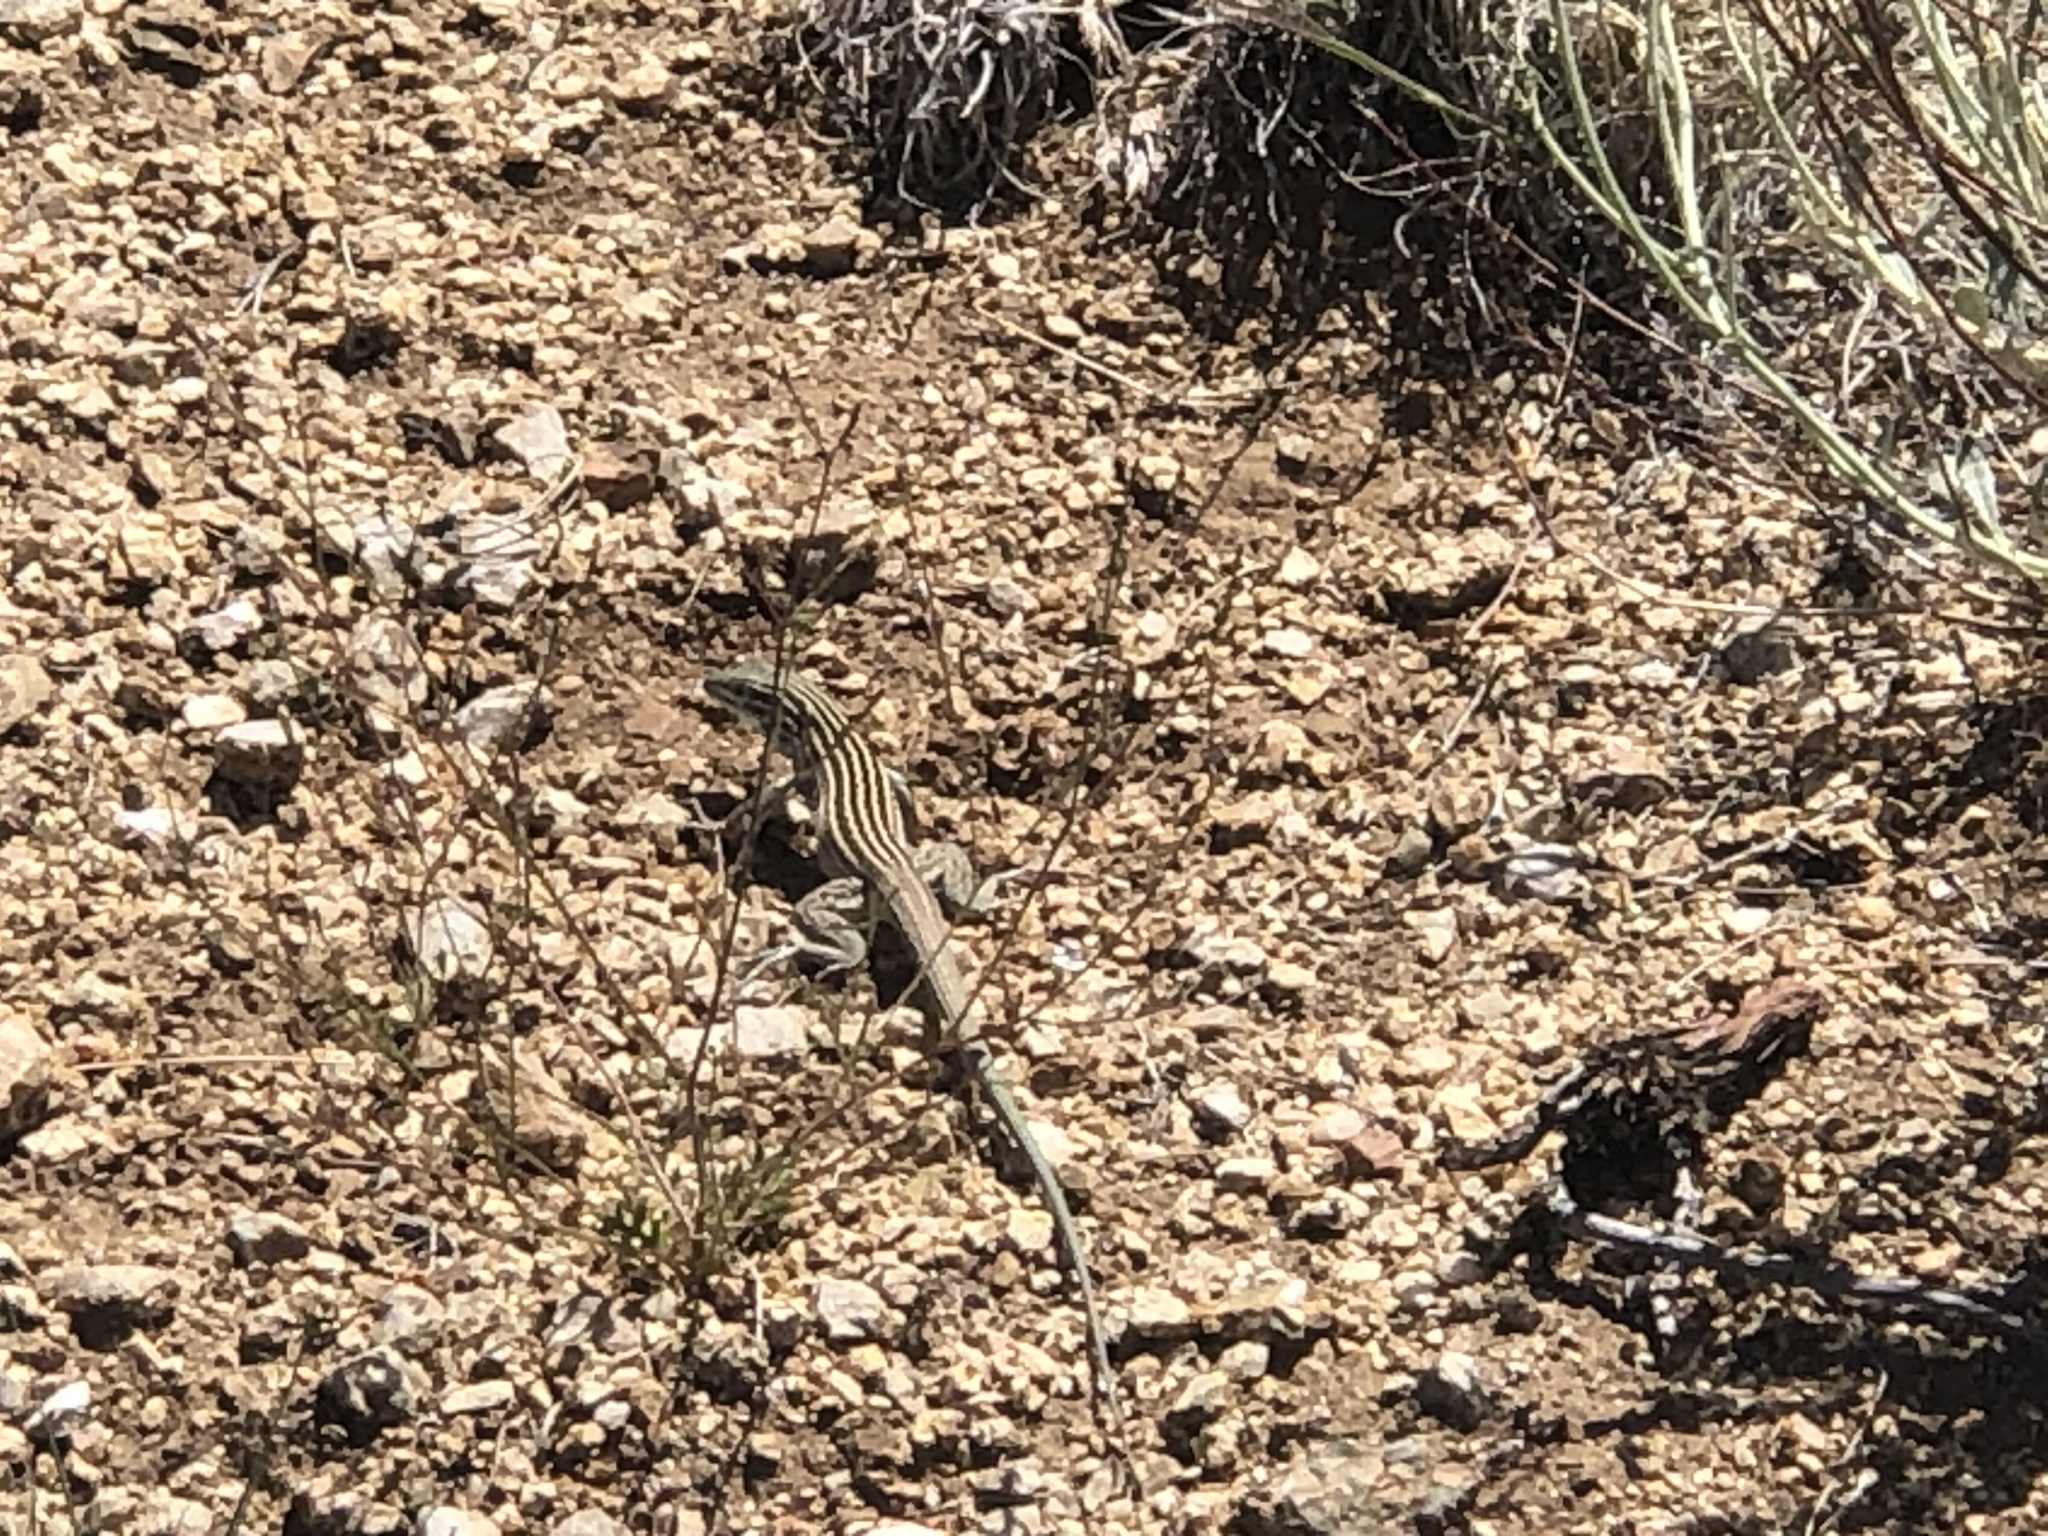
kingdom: Animalia
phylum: Chordata
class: Squamata
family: Teiidae
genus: Aspidoscelis
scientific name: Aspidoscelis neomexicanus
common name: New mexico whiptail
